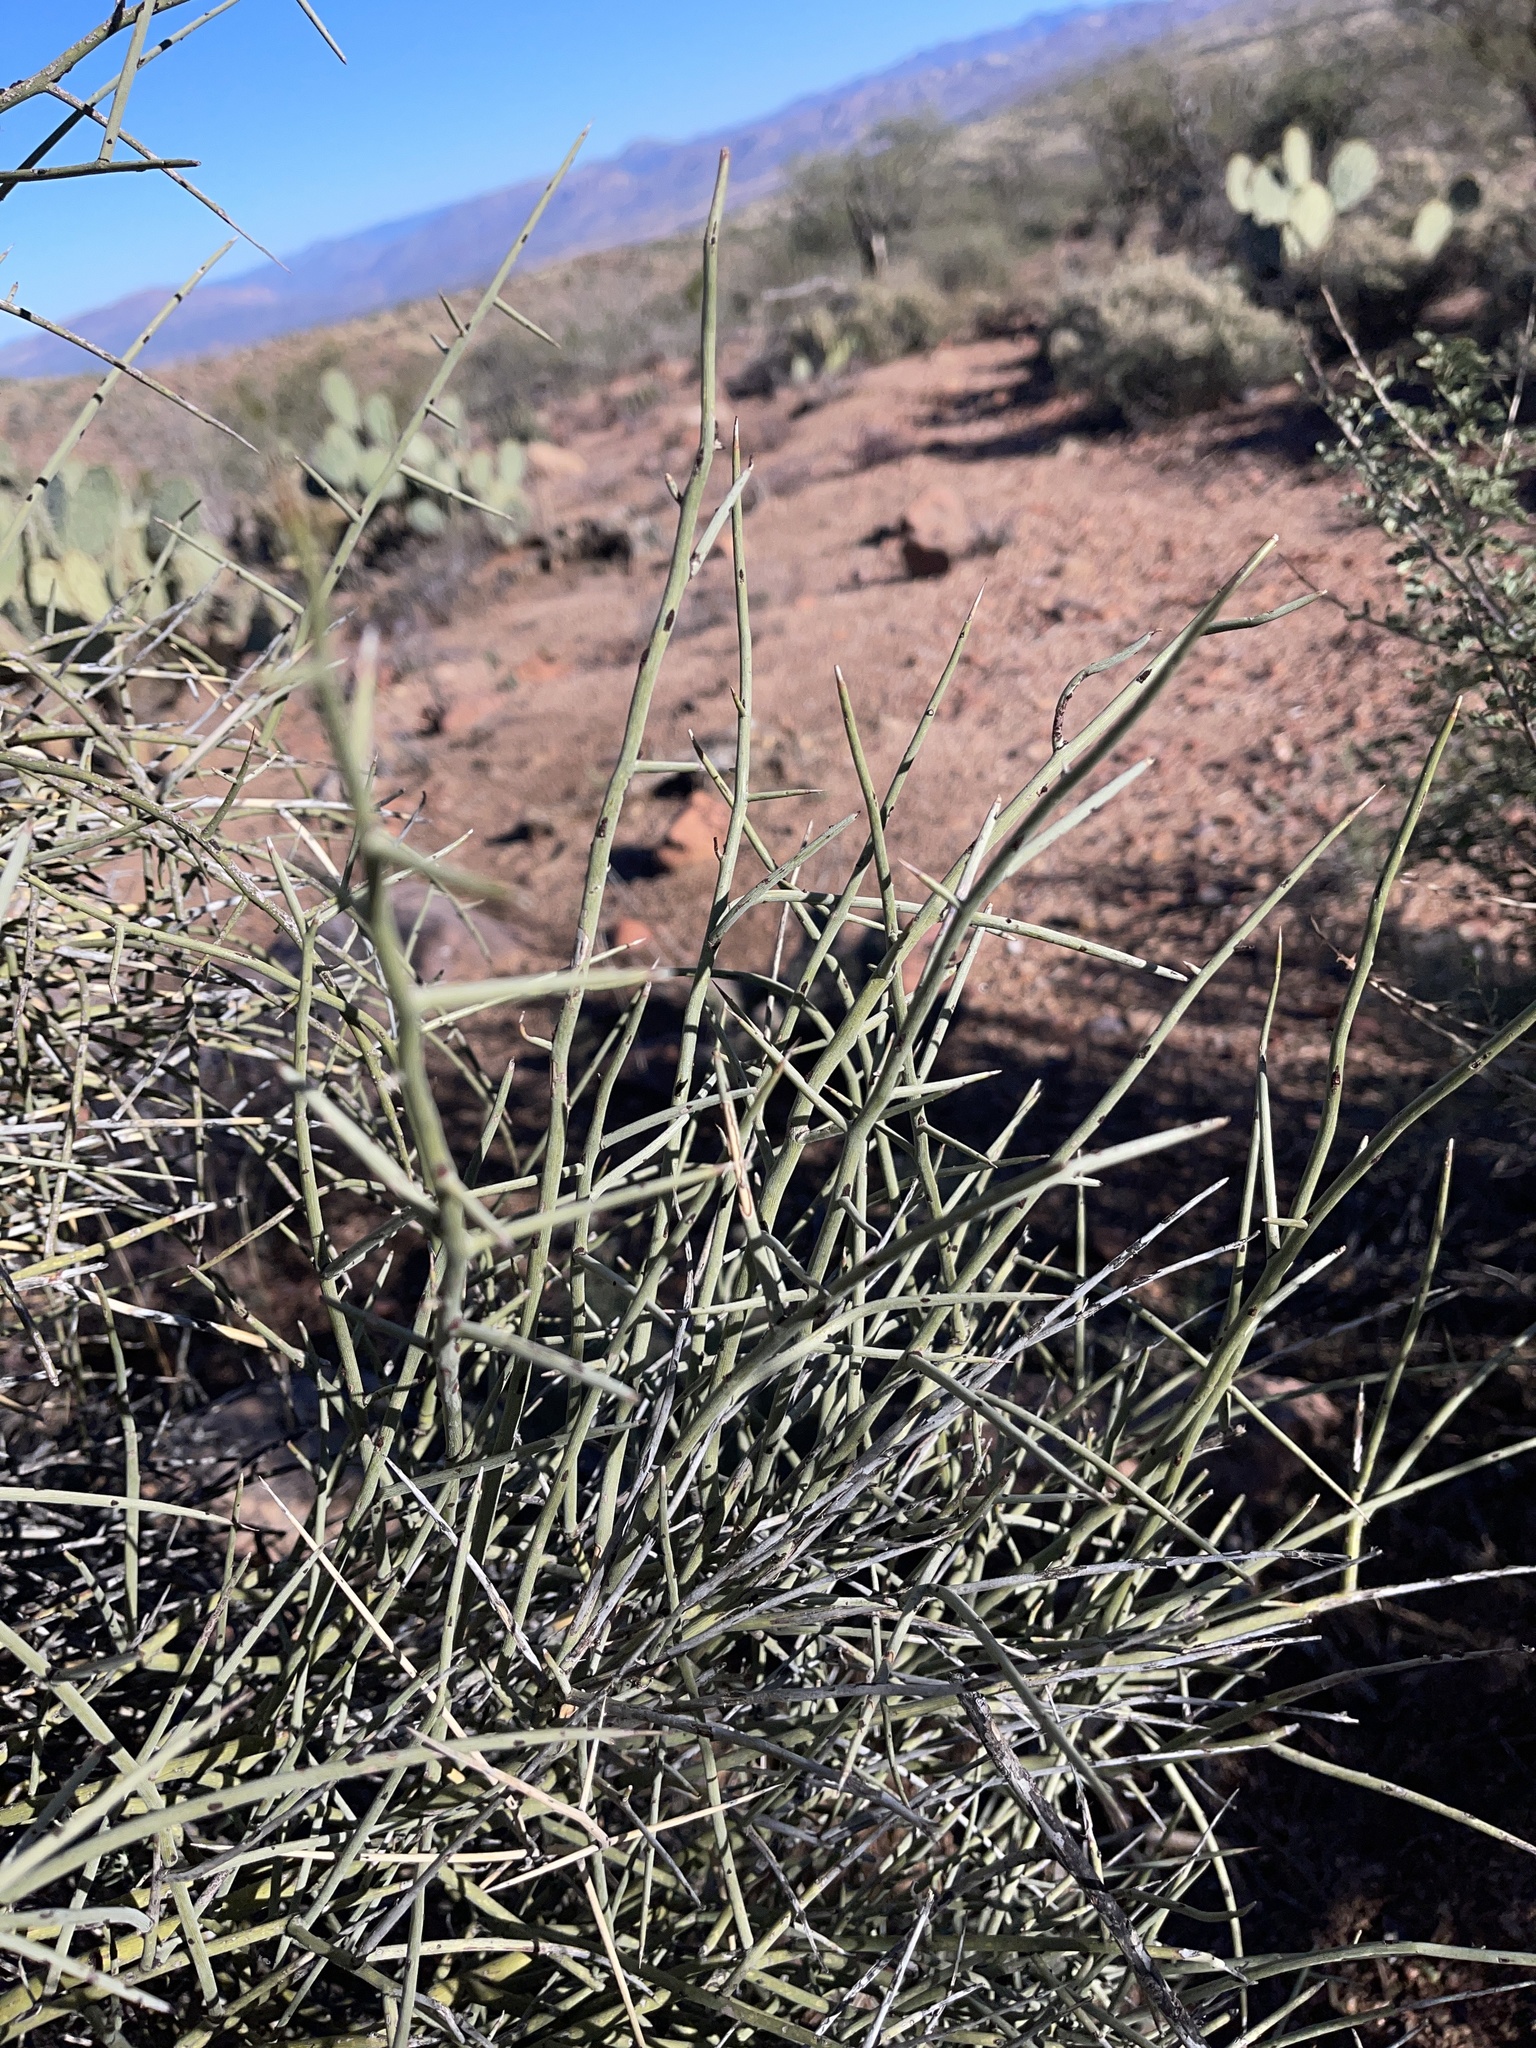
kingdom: Plantae
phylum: Tracheophyta
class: Magnoliopsida
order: Celastrales
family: Celastraceae
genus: Canotia
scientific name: Canotia holacantha
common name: Crucifixion thorns
